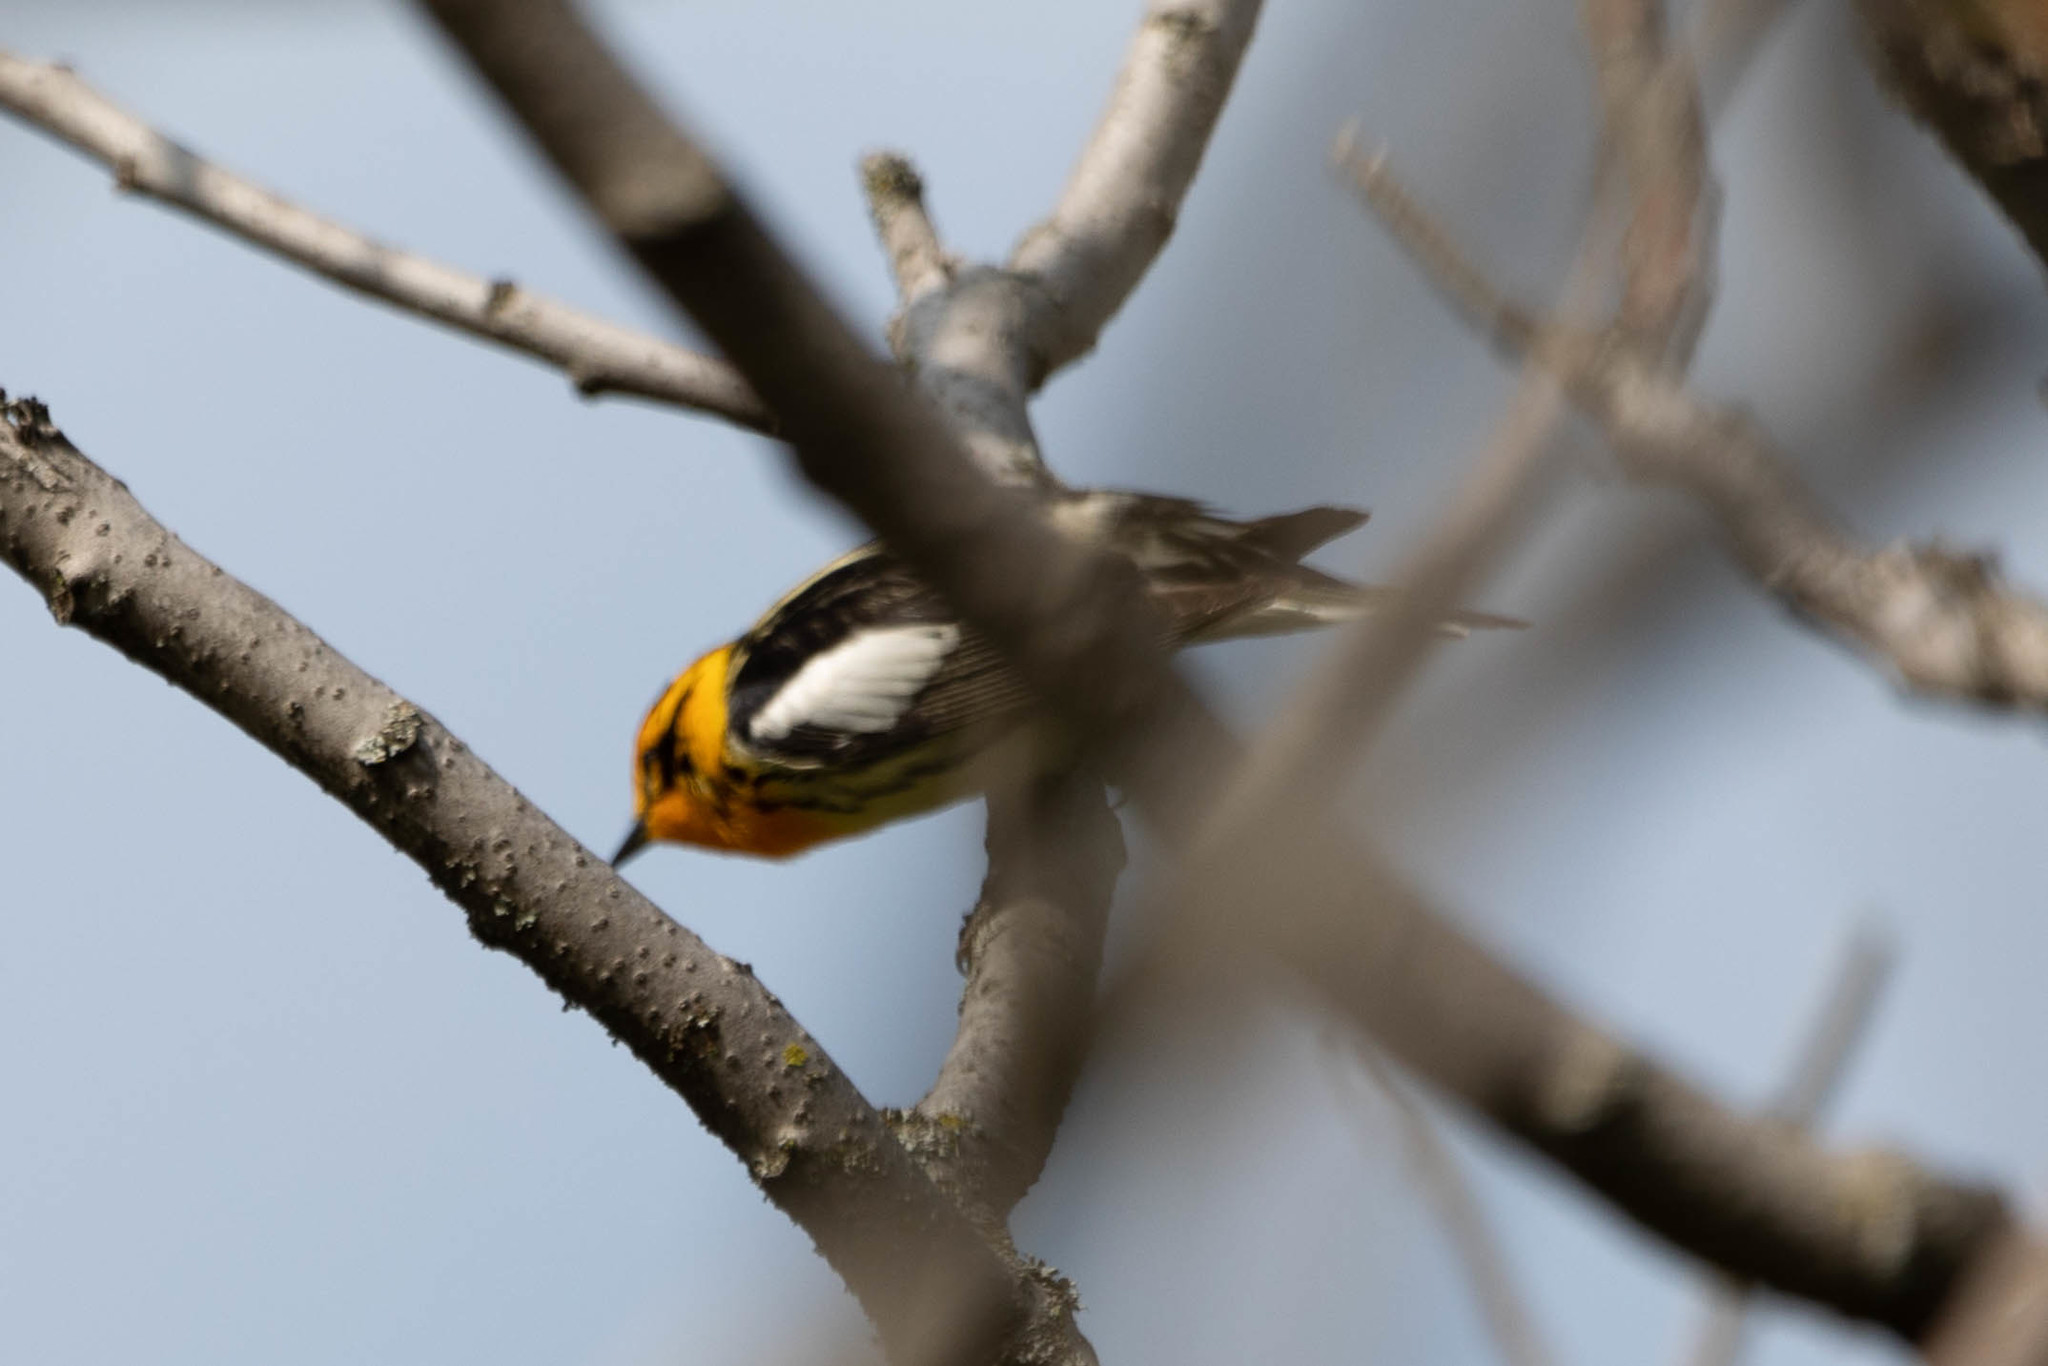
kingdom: Animalia
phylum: Chordata
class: Aves
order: Passeriformes
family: Parulidae
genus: Setophaga
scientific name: Setophaga fusca
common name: Blackburnian warbler
